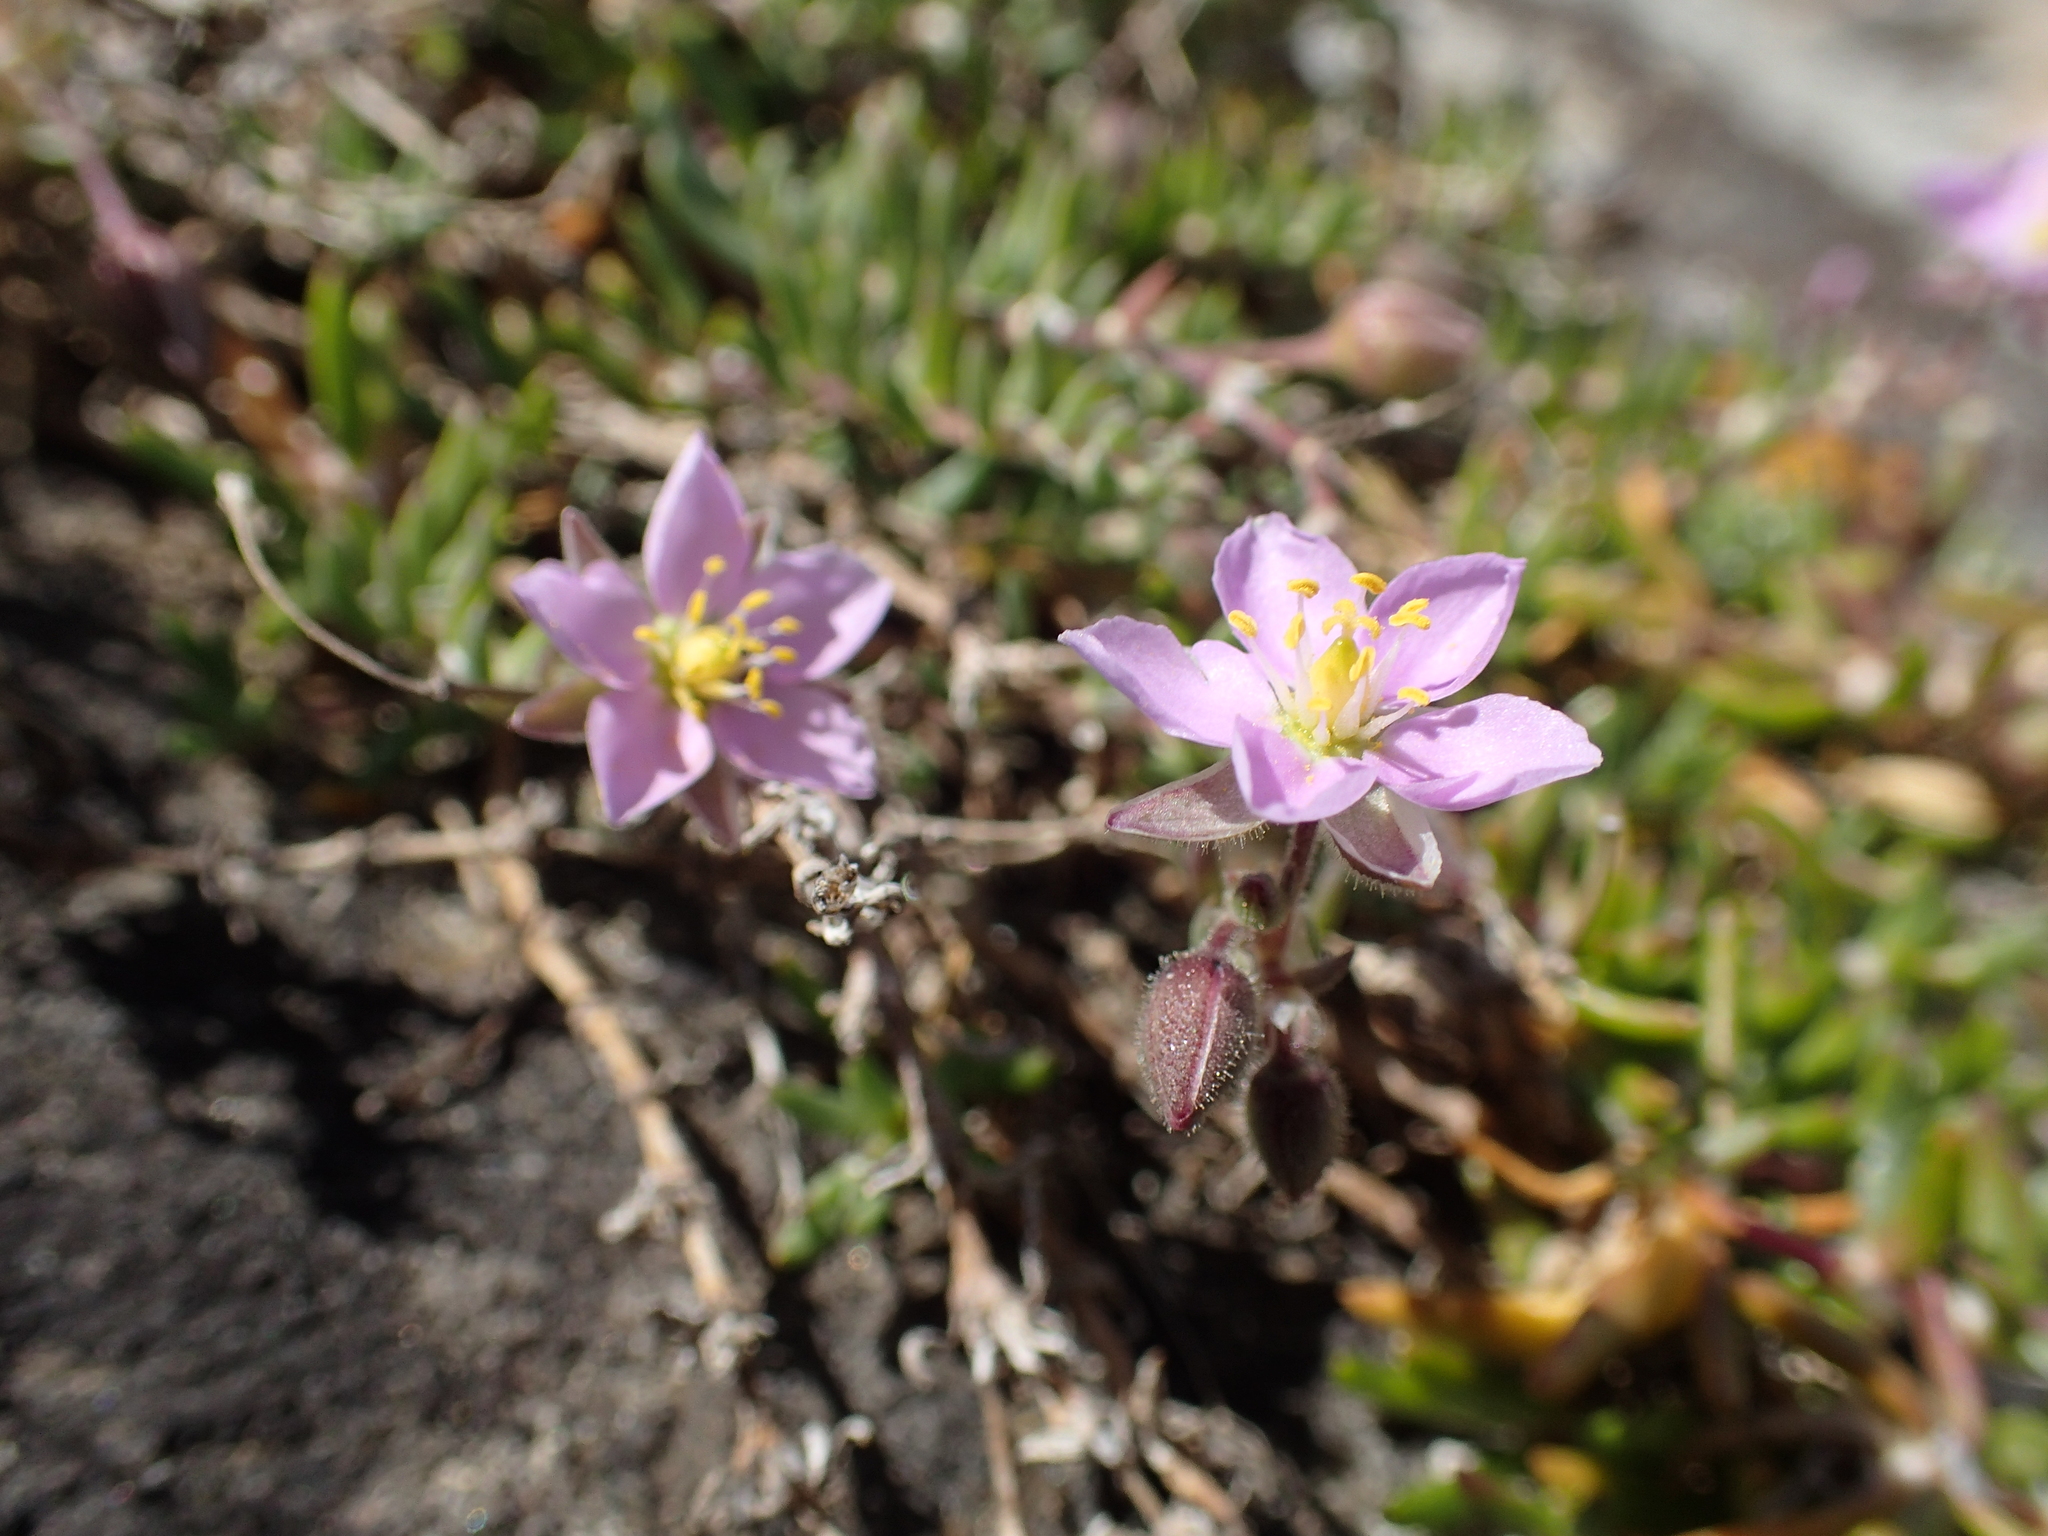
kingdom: Plantae
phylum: Tracheophyta
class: Magnoliopsida
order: Caryophyllales
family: Caryophyllaceae
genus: Spergularia
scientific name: Spergularia rupicola
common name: Cliff sand-spurrey
